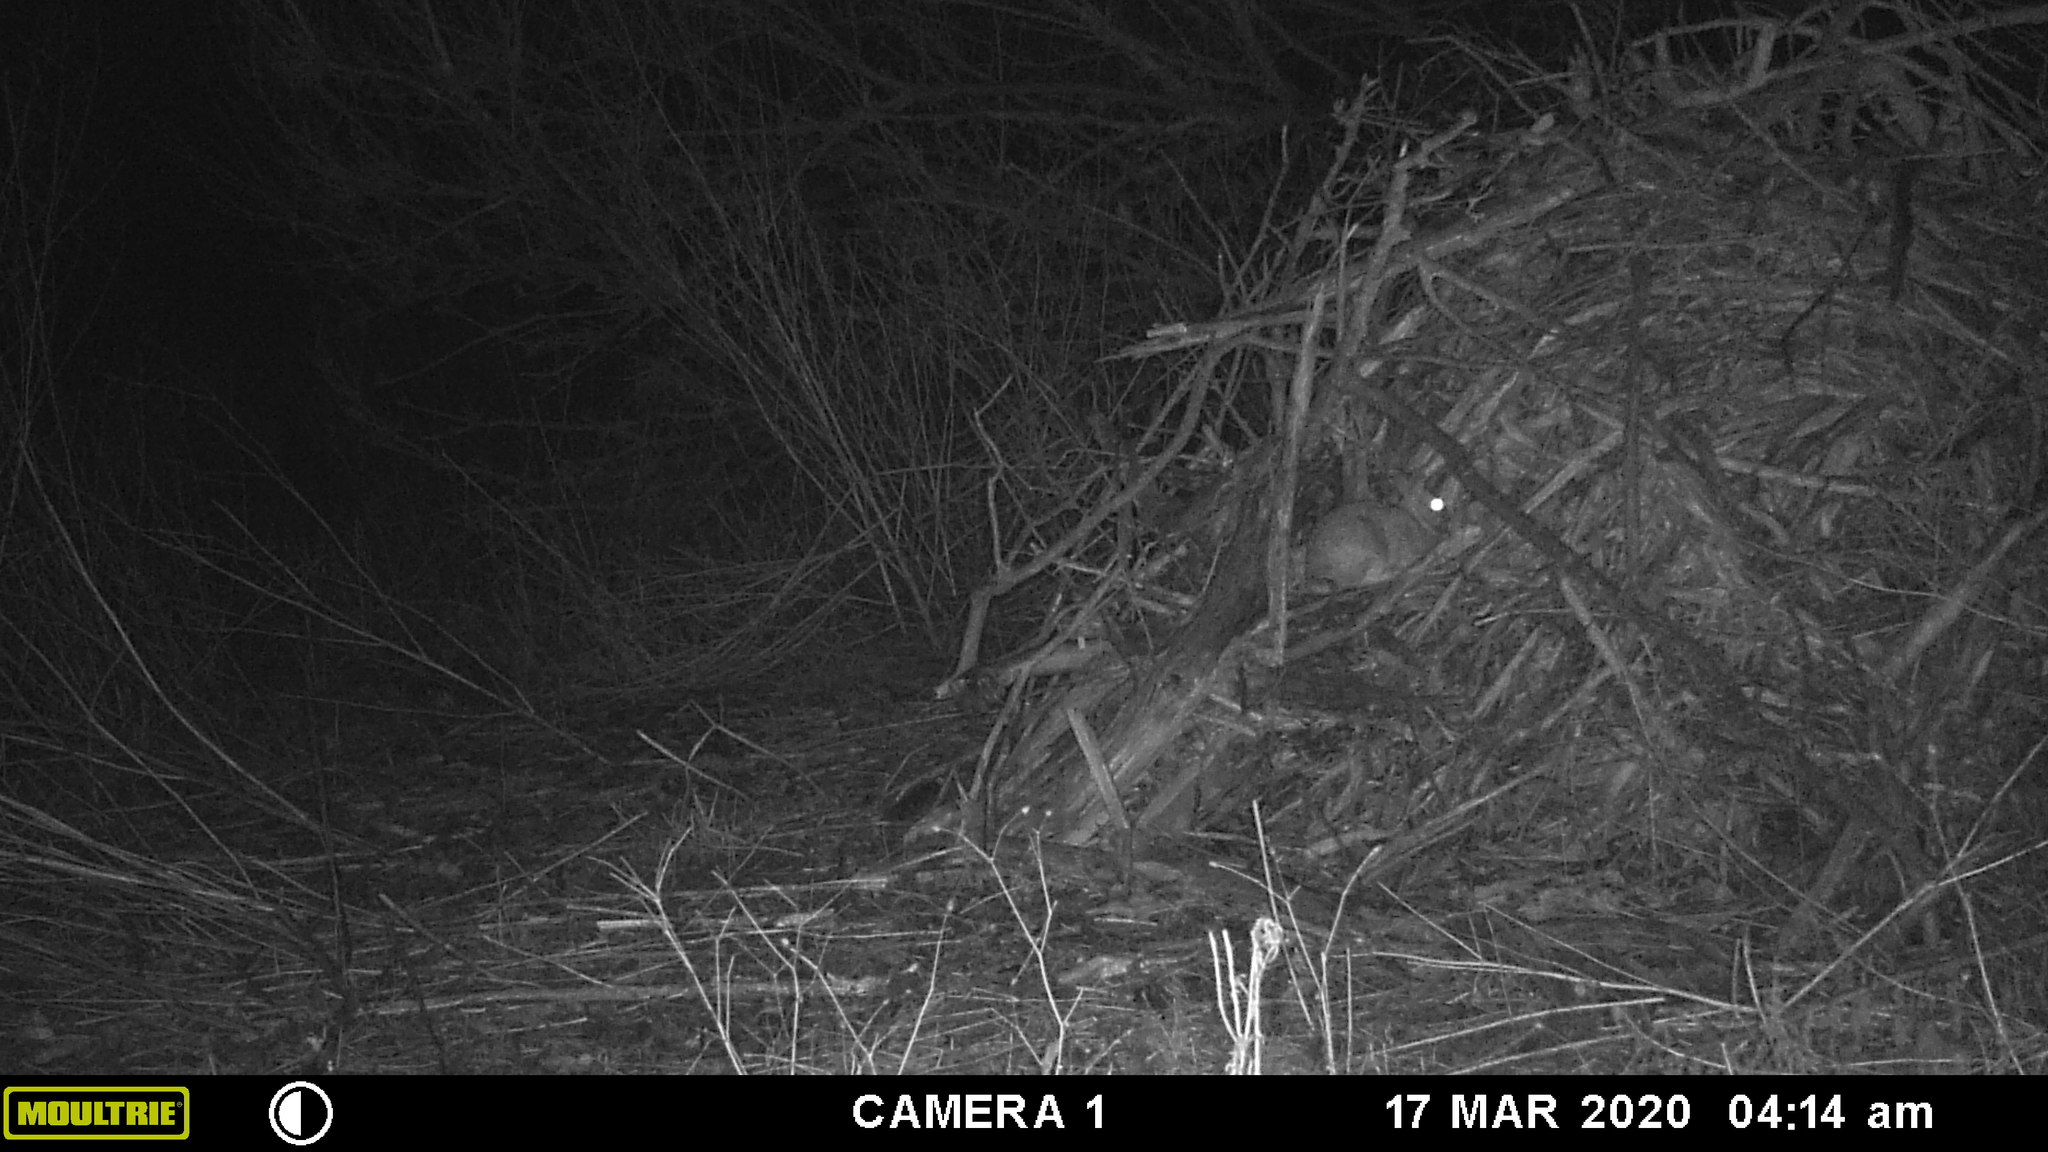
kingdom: Animalia
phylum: Chordata
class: Mammalia
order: Lagomorpha
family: Leporidae
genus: Sylvilagus
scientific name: Sylvilagus floridanus
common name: Eastern cottontail
